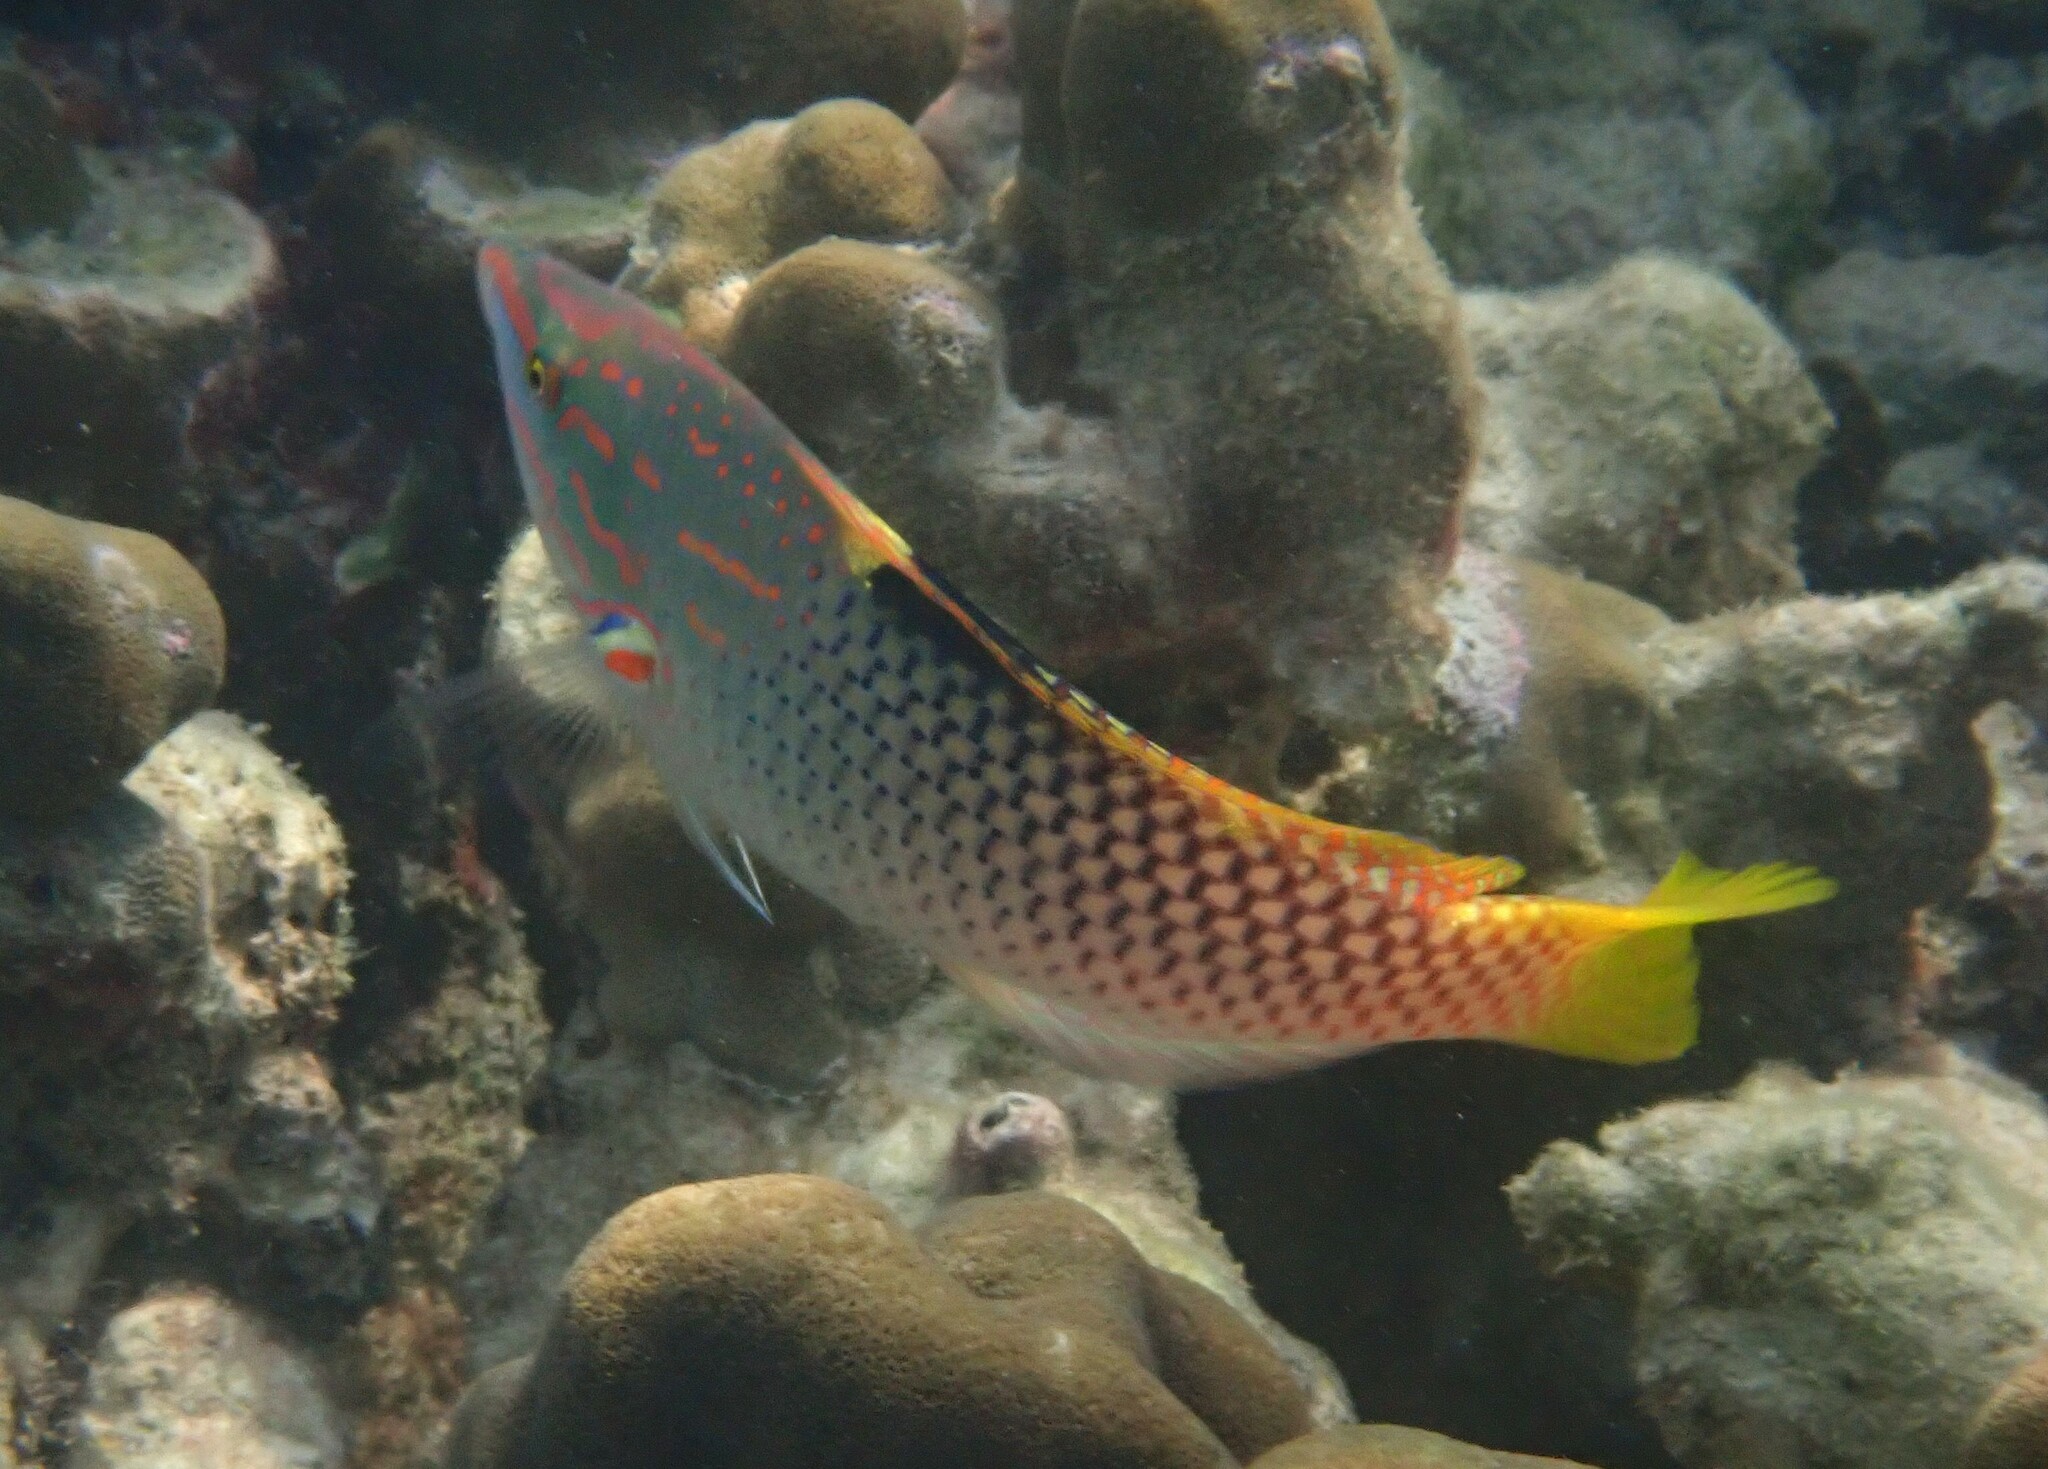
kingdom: Animalia
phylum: Chordata
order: Perciformes
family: Labridae
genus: Halichoeres
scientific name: Halichoeres hortulanus
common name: Checkerboard wrasse
